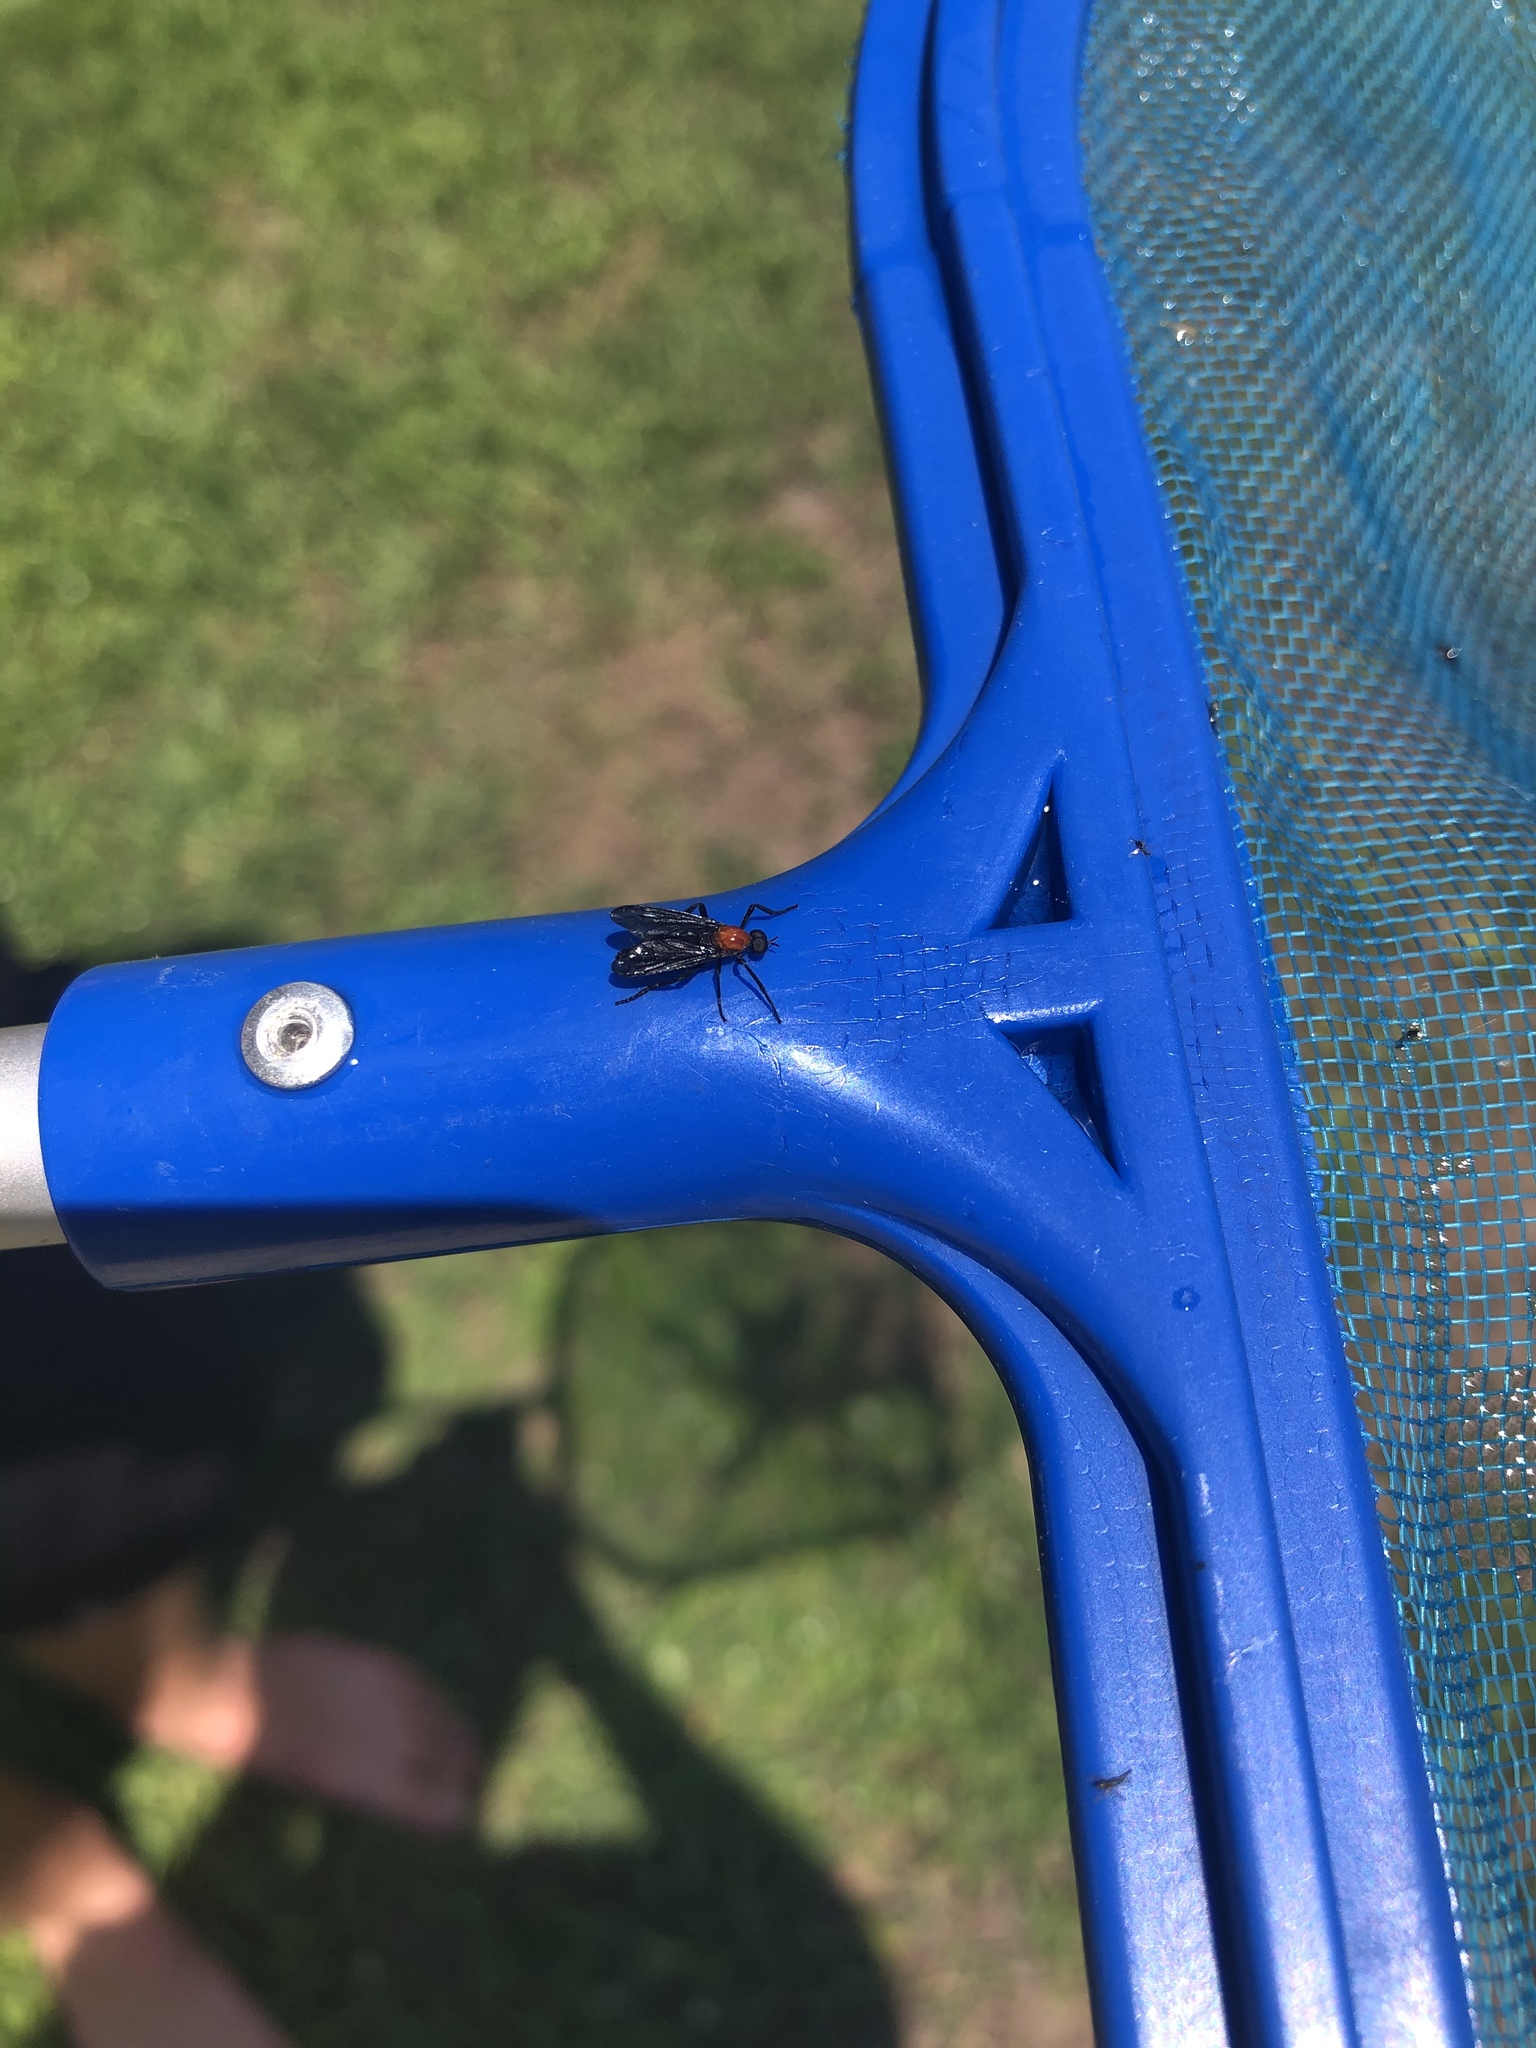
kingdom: Animalia
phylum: Arthropoda
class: Insecta
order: Diptera
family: Bibionidae
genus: Plecia
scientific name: Plecia nearctica
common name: March fly
